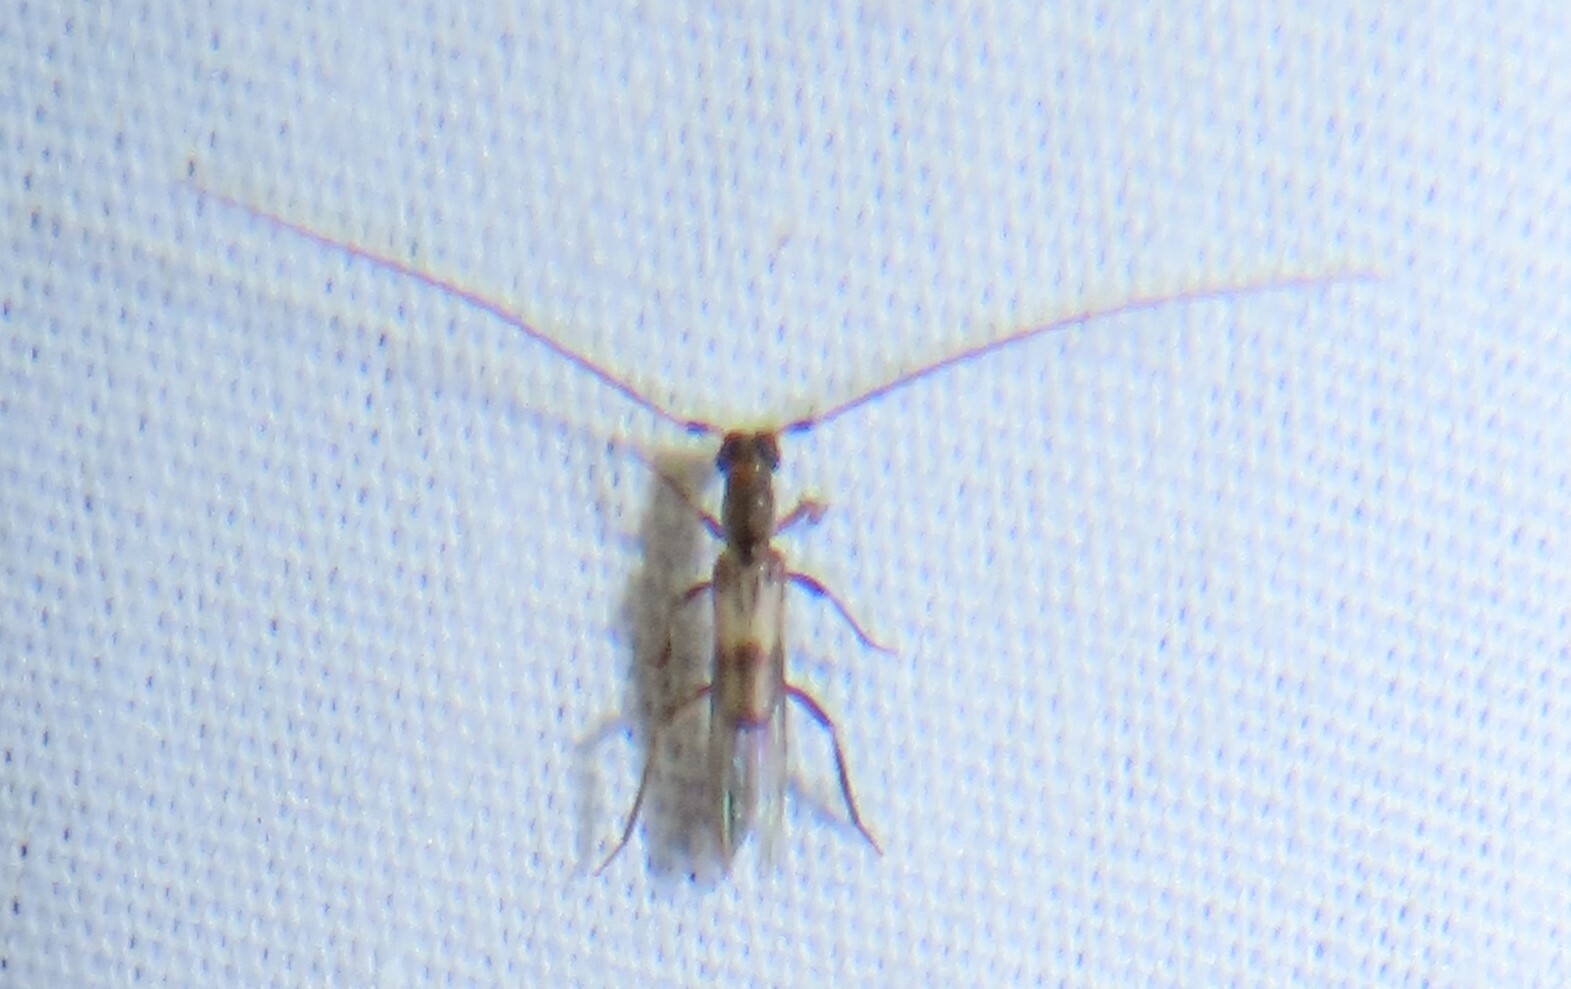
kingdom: Animalia
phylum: Arthropoda
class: Insecta
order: Coleoptera
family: Cerambycidae
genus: Methia
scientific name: Methia necydalea
